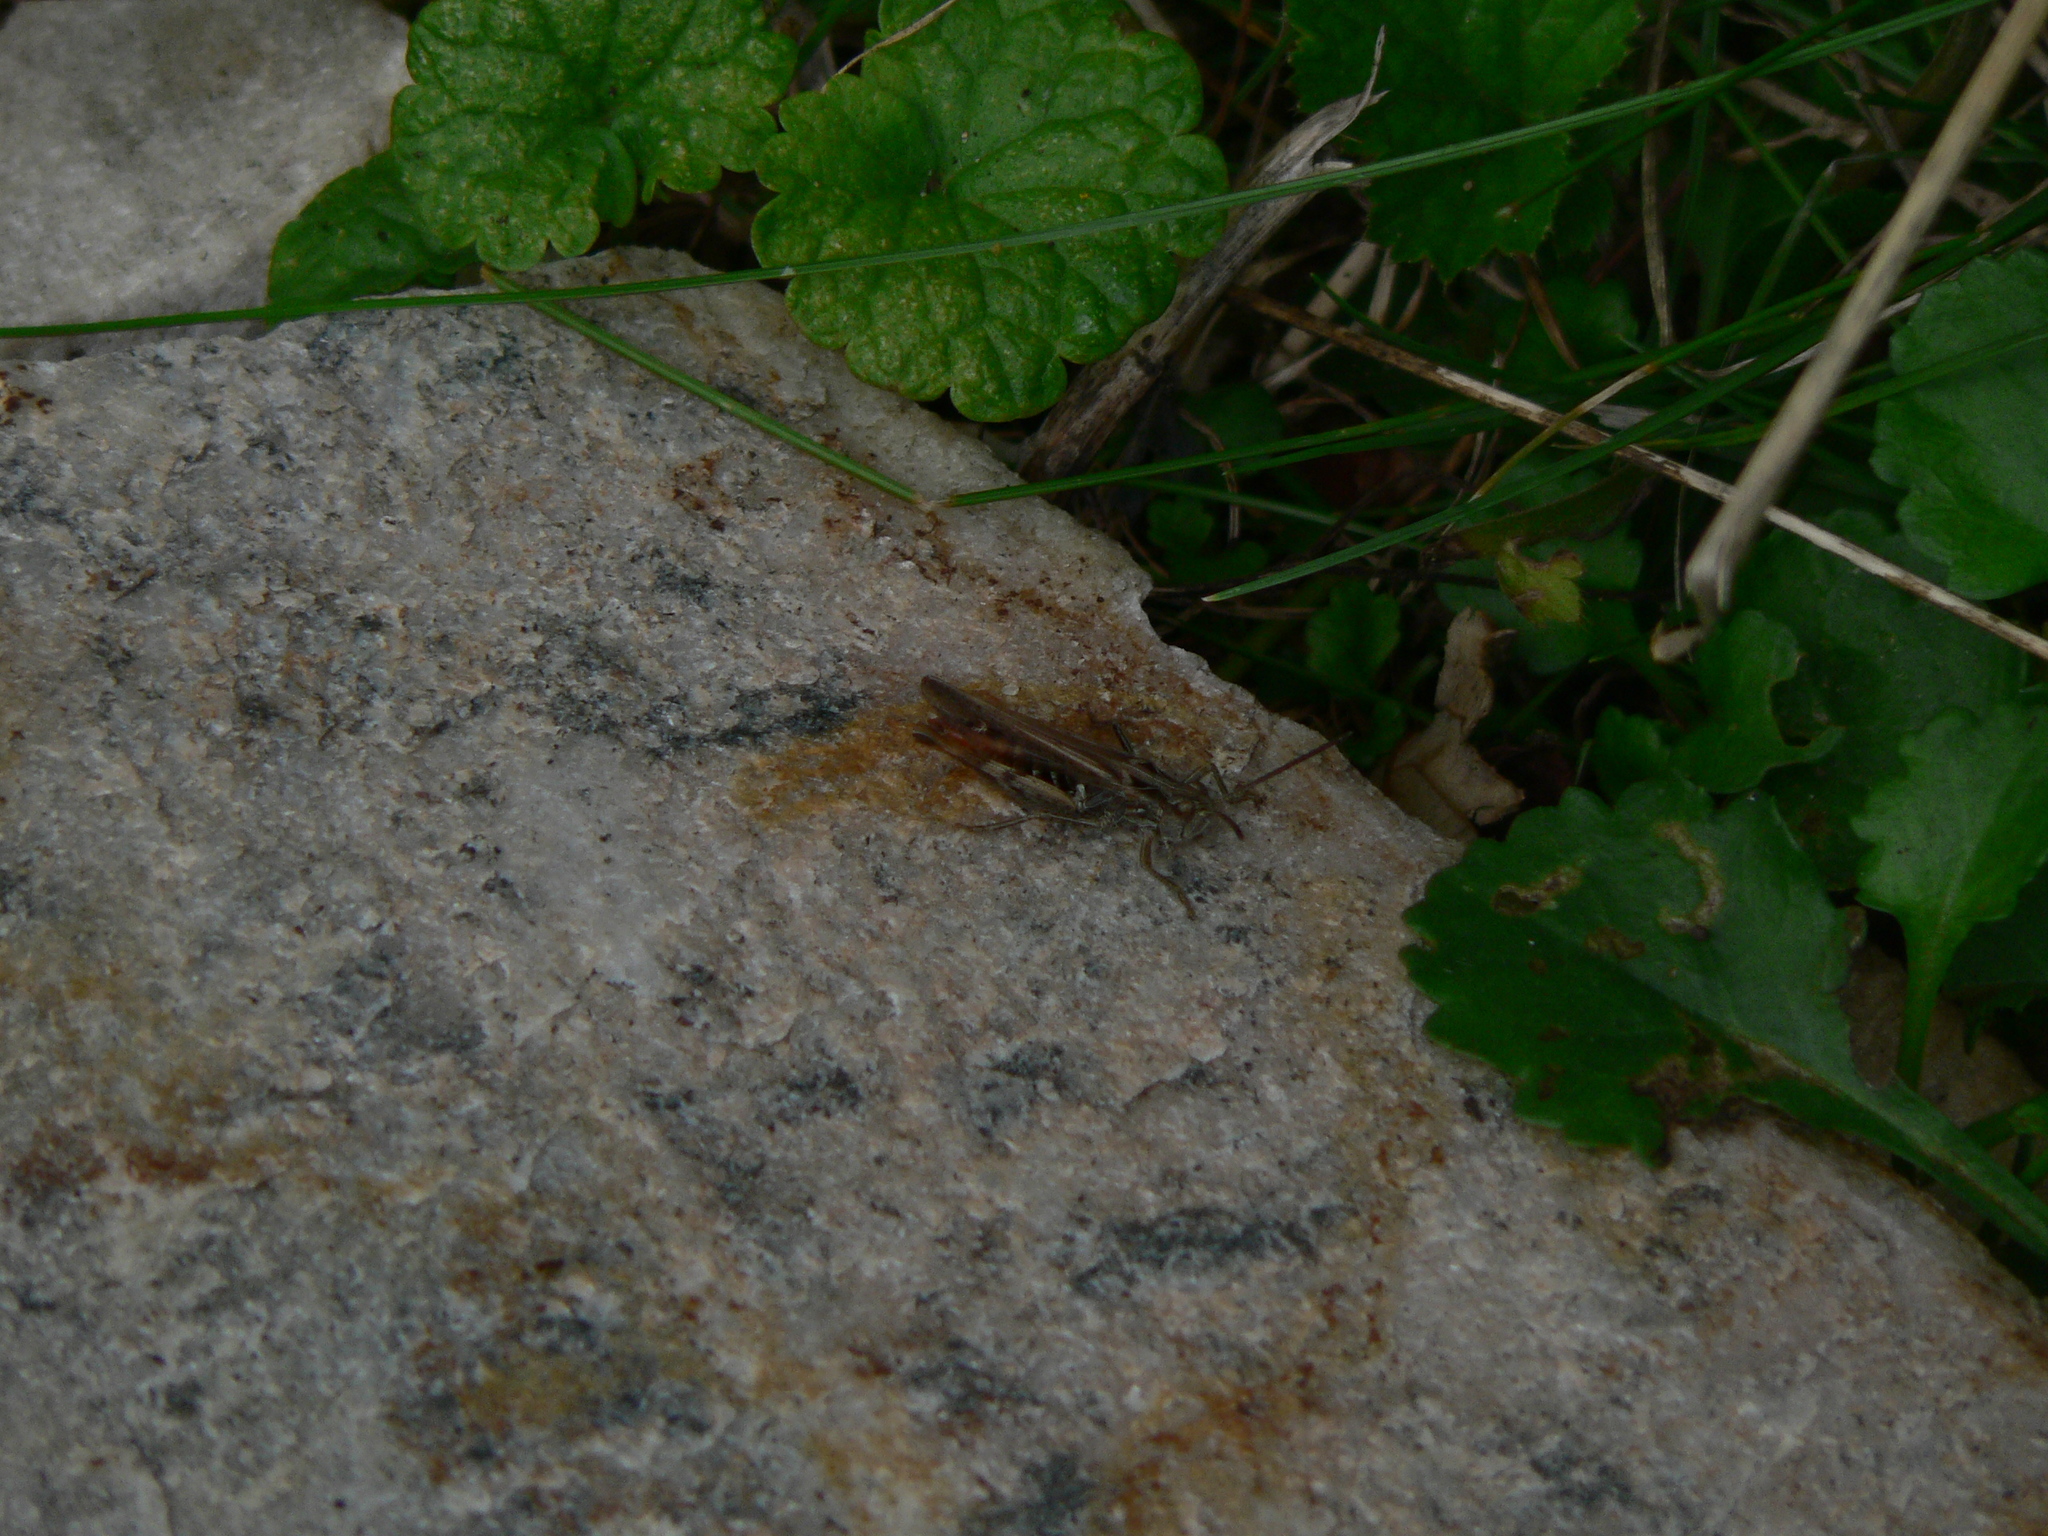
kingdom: Animalia
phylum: Arthropoda
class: Insecta
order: Orthoptera
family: Acrididae
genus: Chorthippus
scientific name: Chorthippus biguttulus
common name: Bow-winged grasshopper
